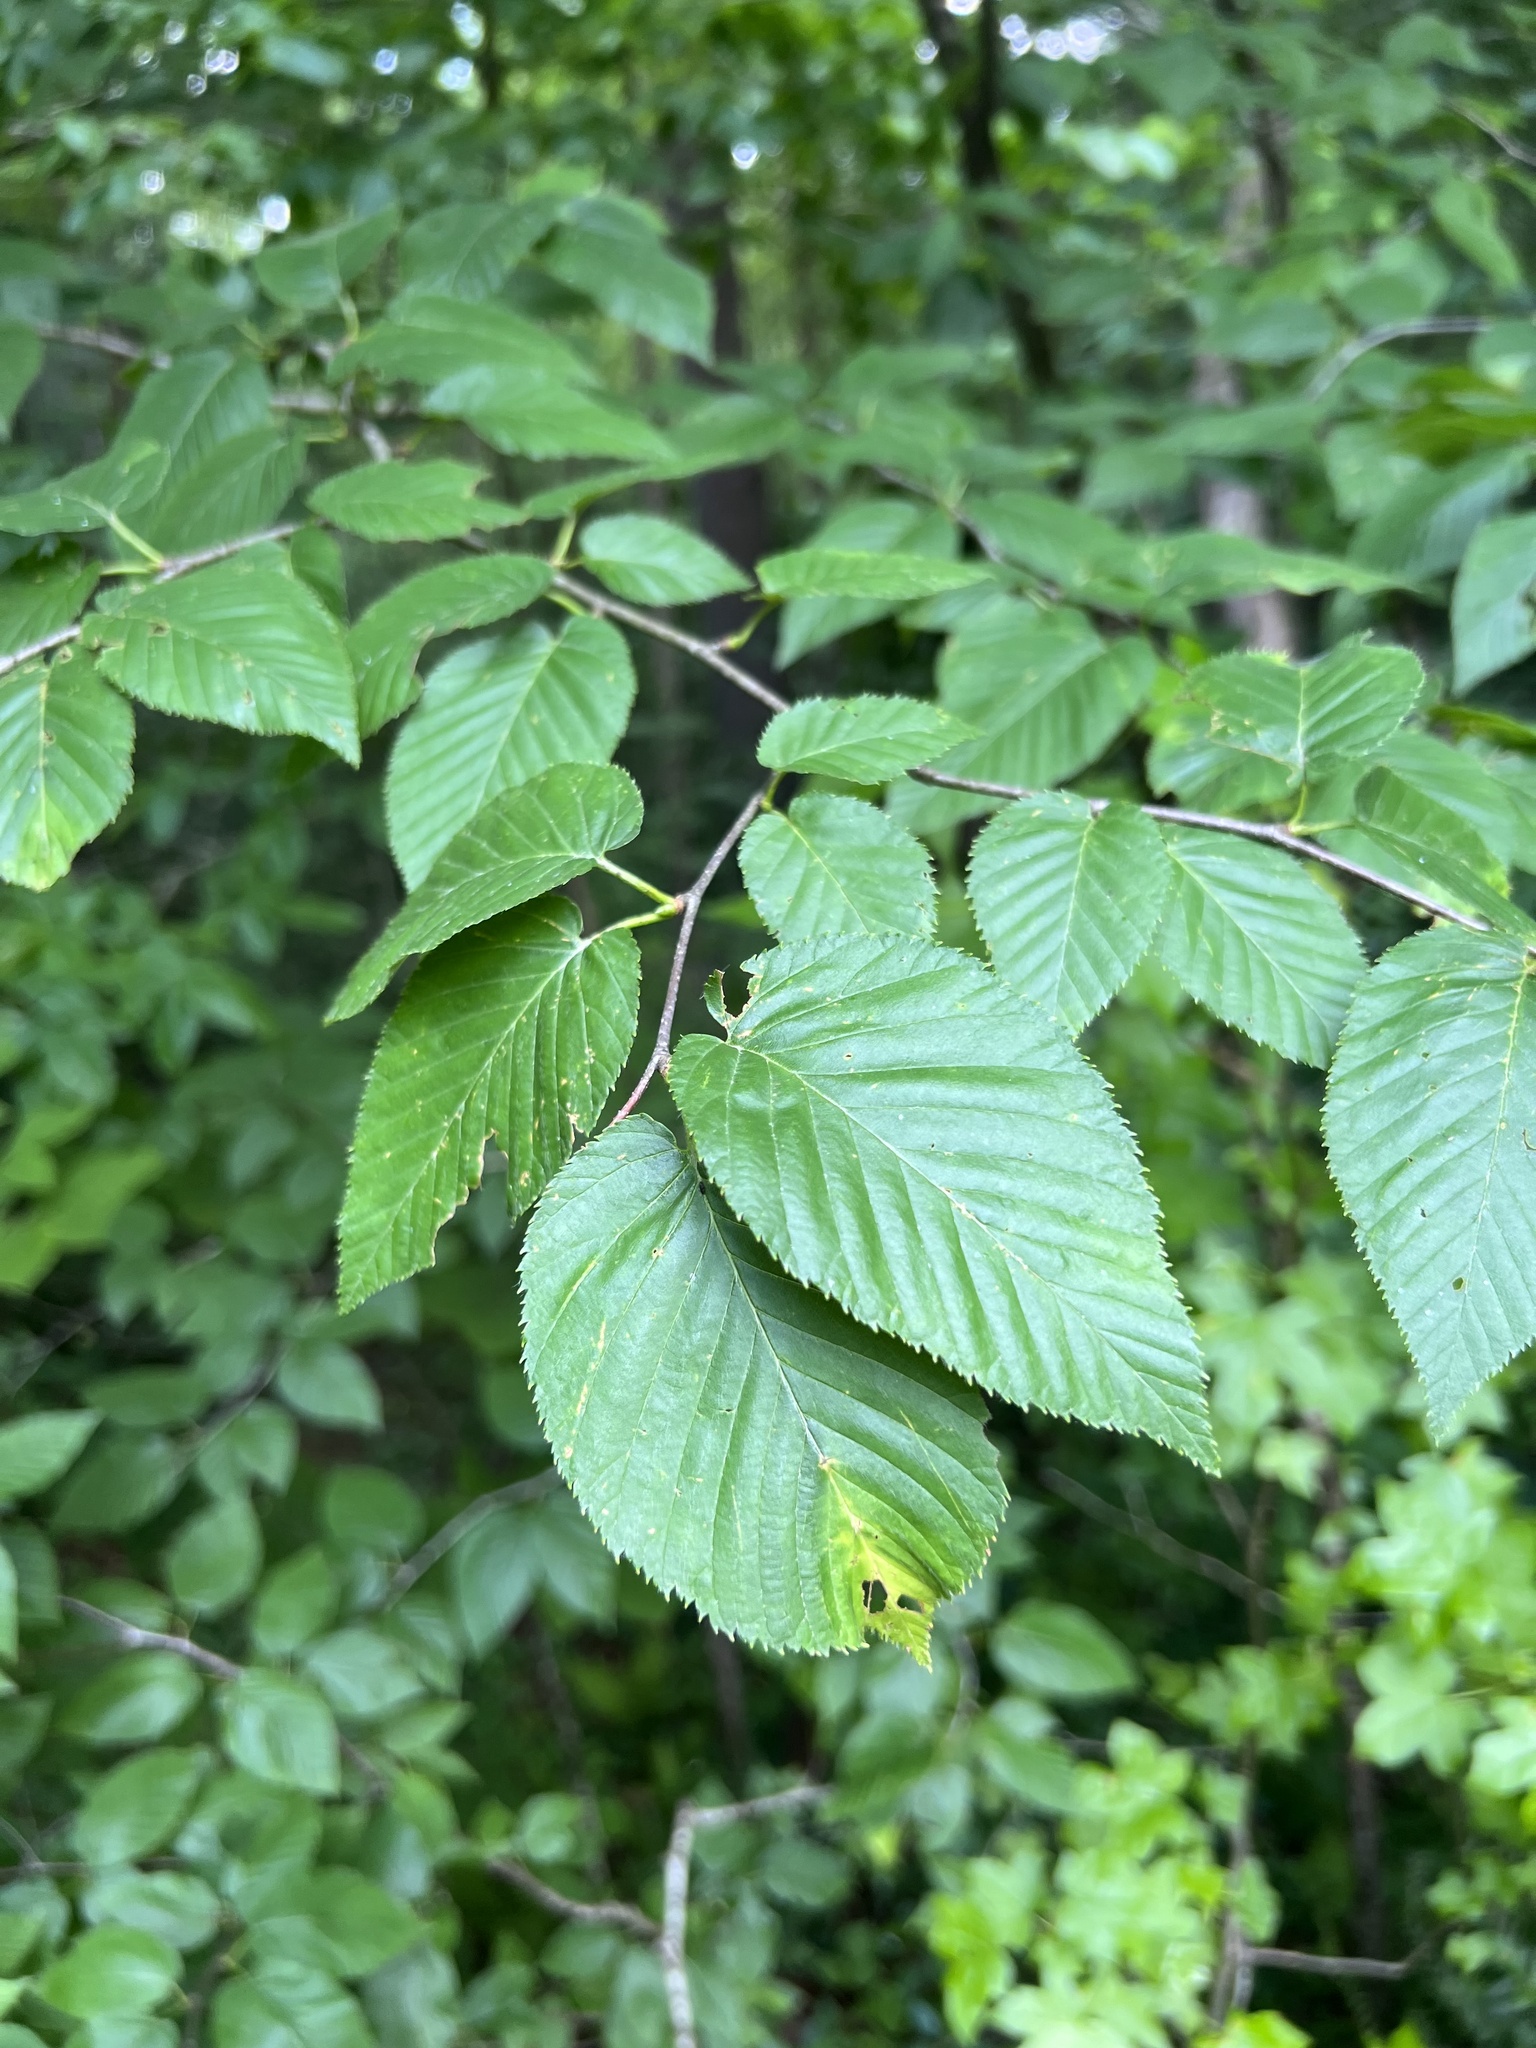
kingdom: Plantae
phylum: Tracheophyta
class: Magnoliopsida
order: Fagales
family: Betulaceae
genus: Betula
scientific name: Betula lenta
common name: Black birch
